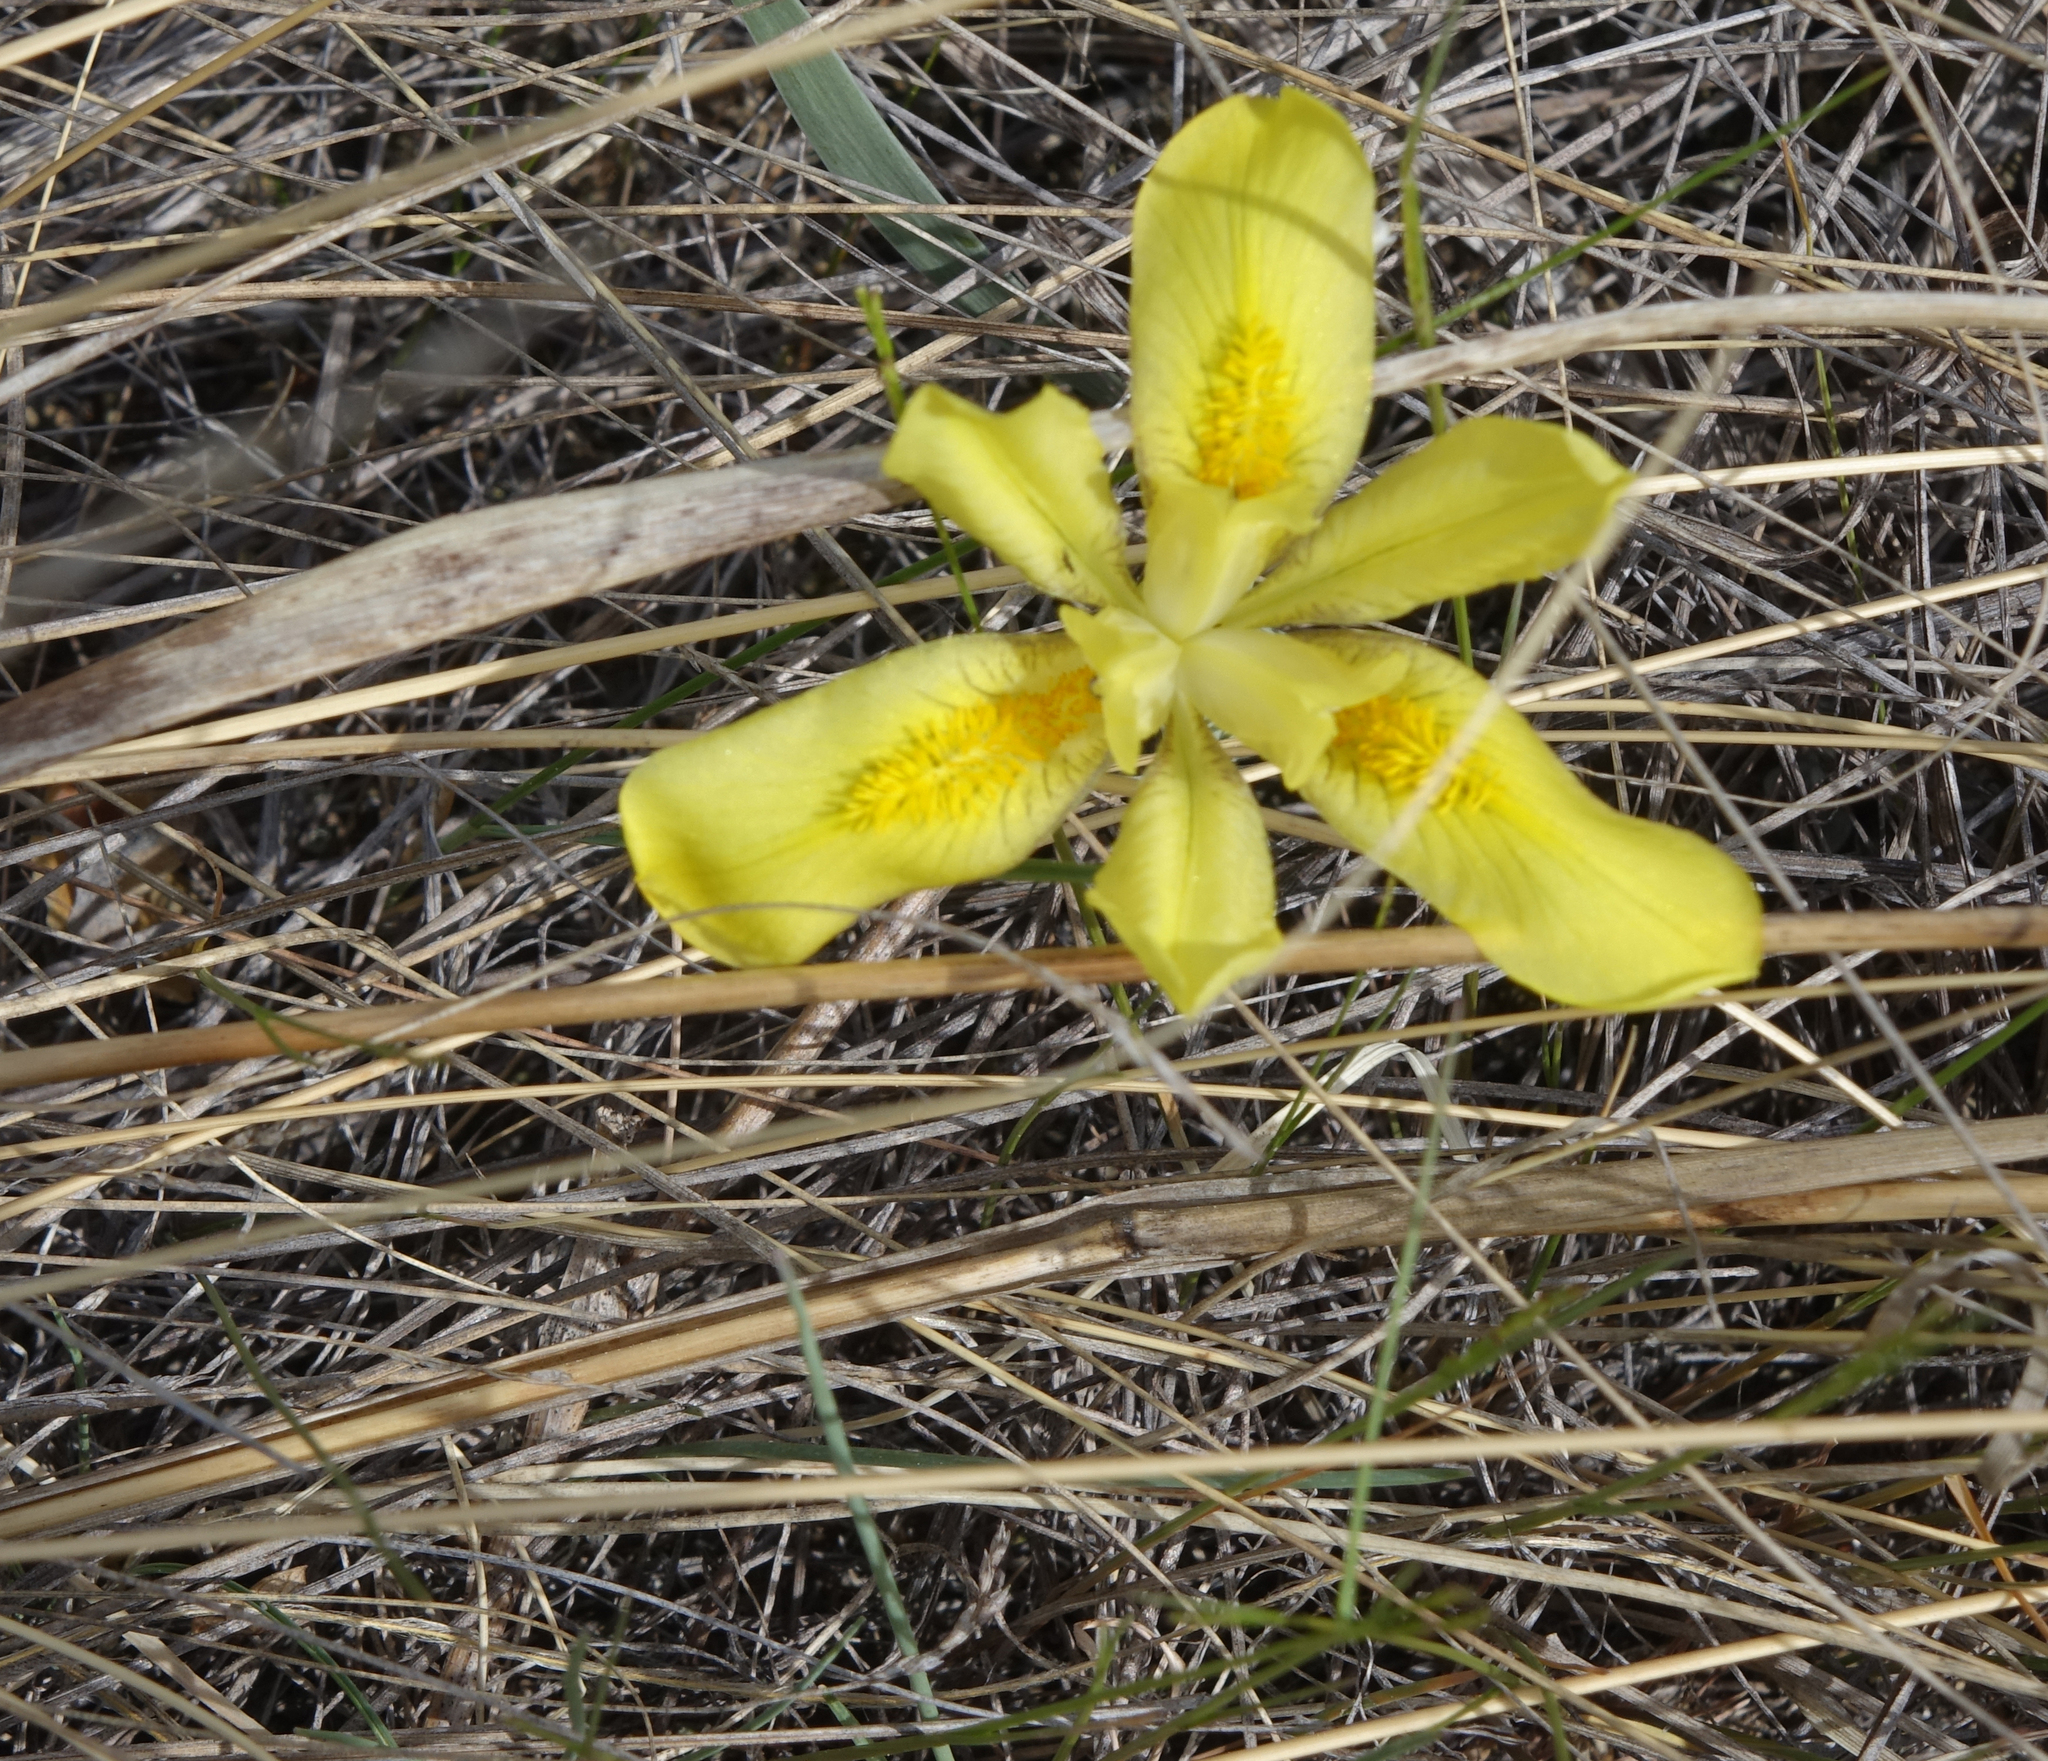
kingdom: Plantae
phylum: Tracheophyta
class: Liliopsida
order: Asparagales
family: Iridaceae
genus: Iris
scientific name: Iris humilis
